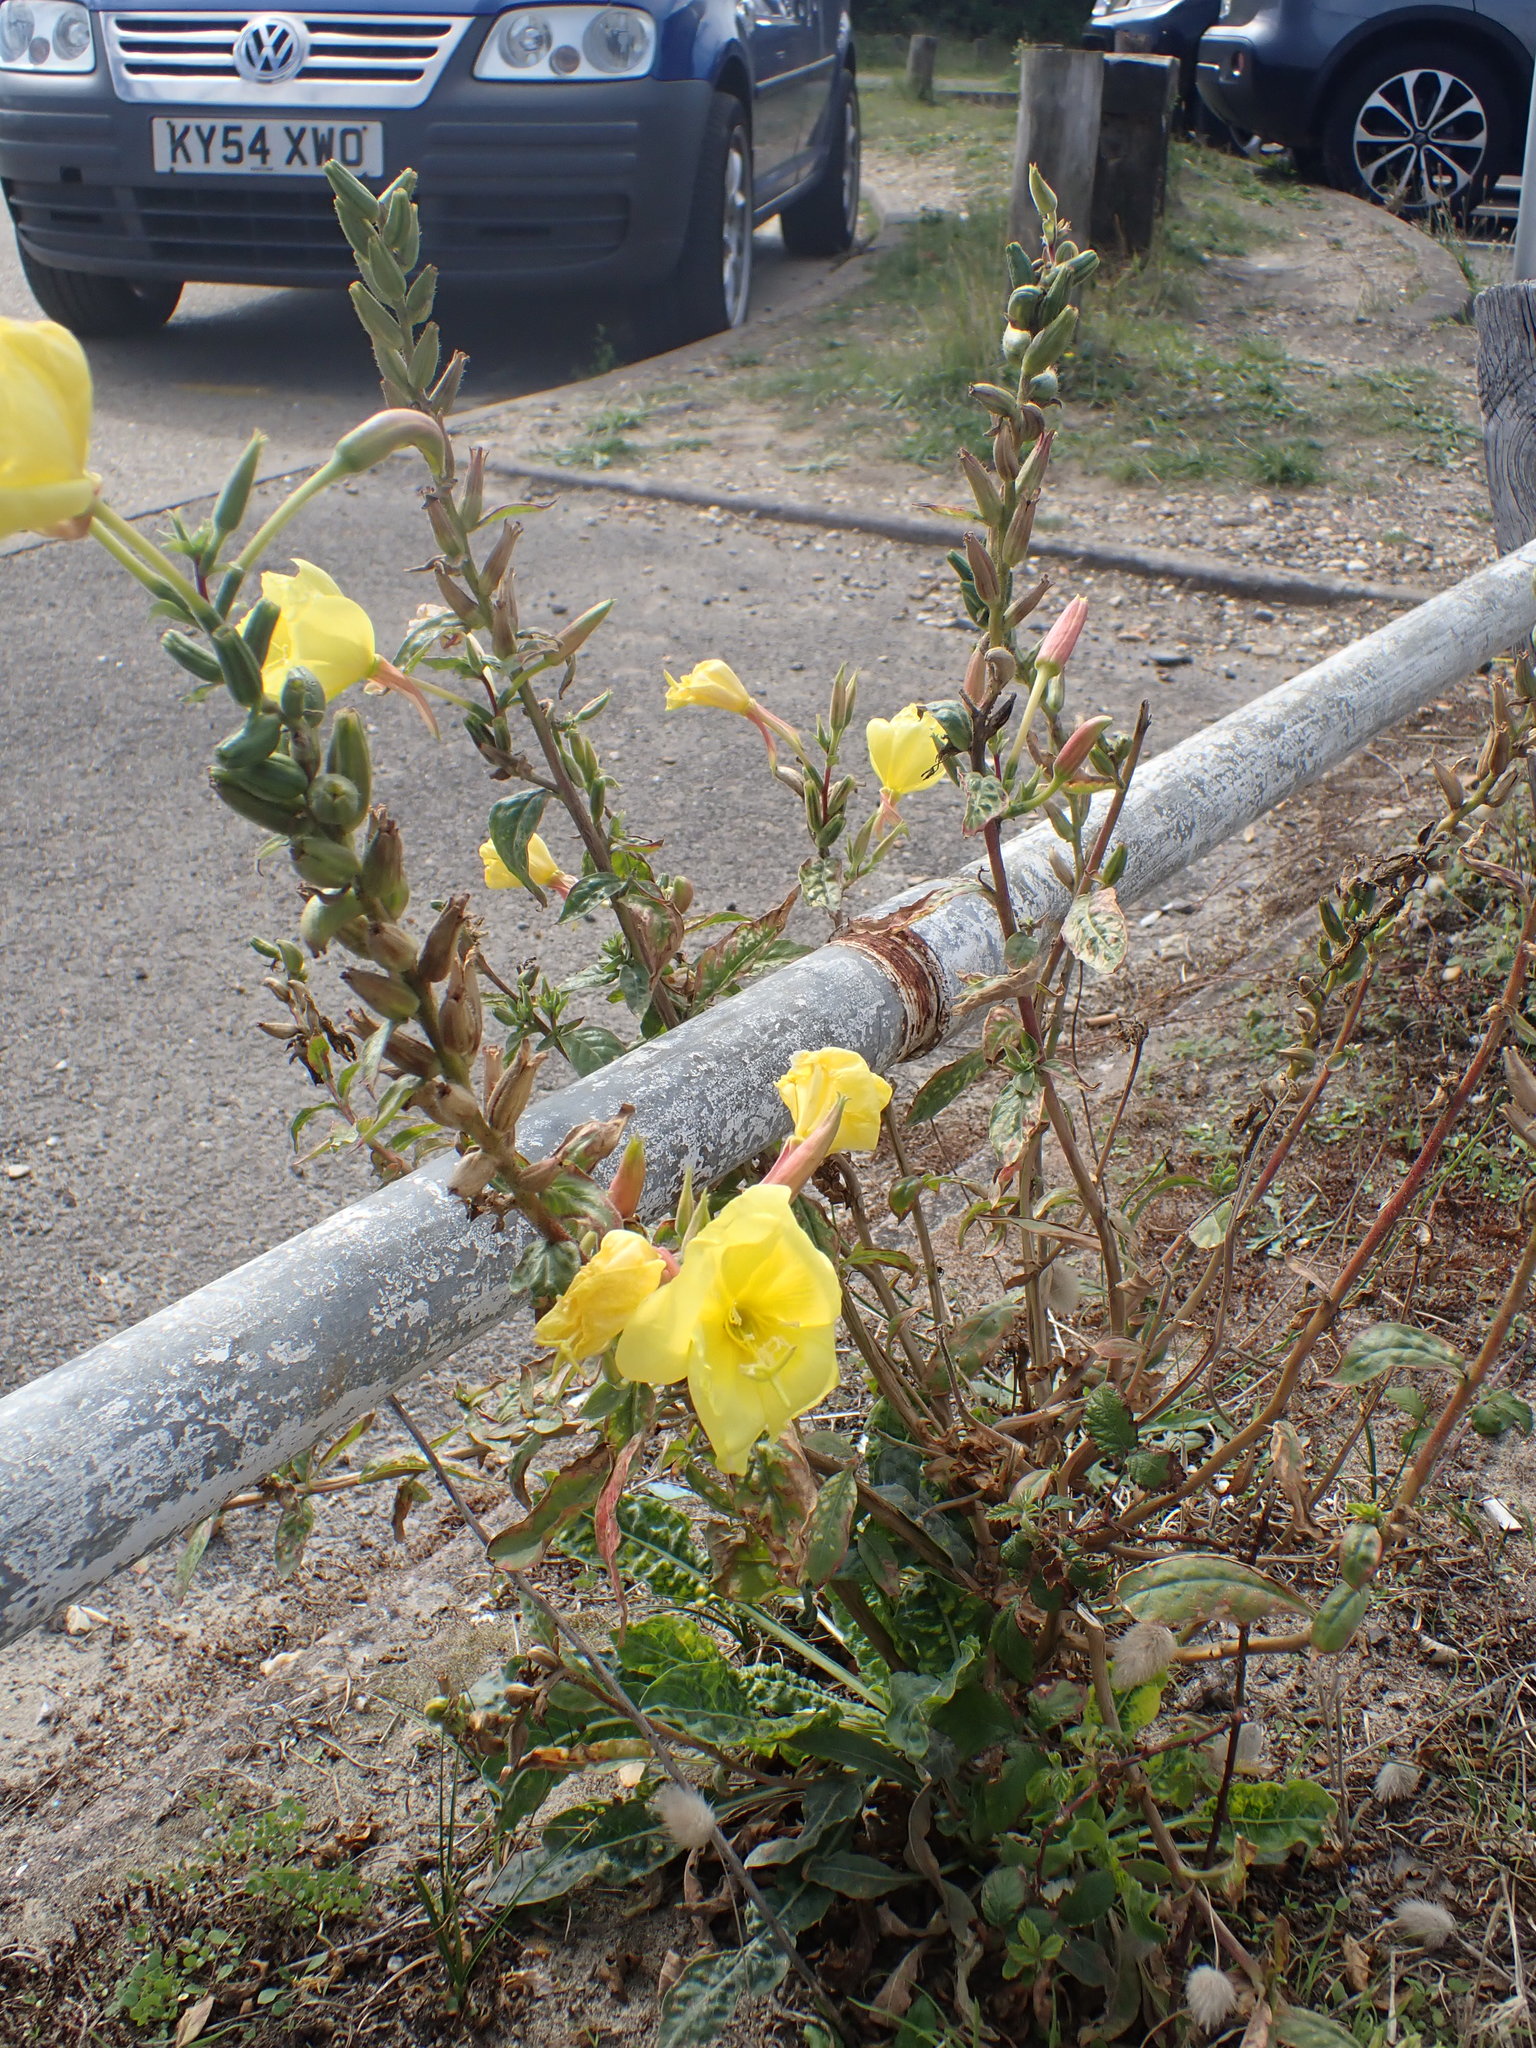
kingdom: Plantae
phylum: Tracheophyta
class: Magnoliopsida
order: Myrtales
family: Onagraceae
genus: Oenothera
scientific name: Oenothera glazioviana
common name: Large-flowered evening-primrose
